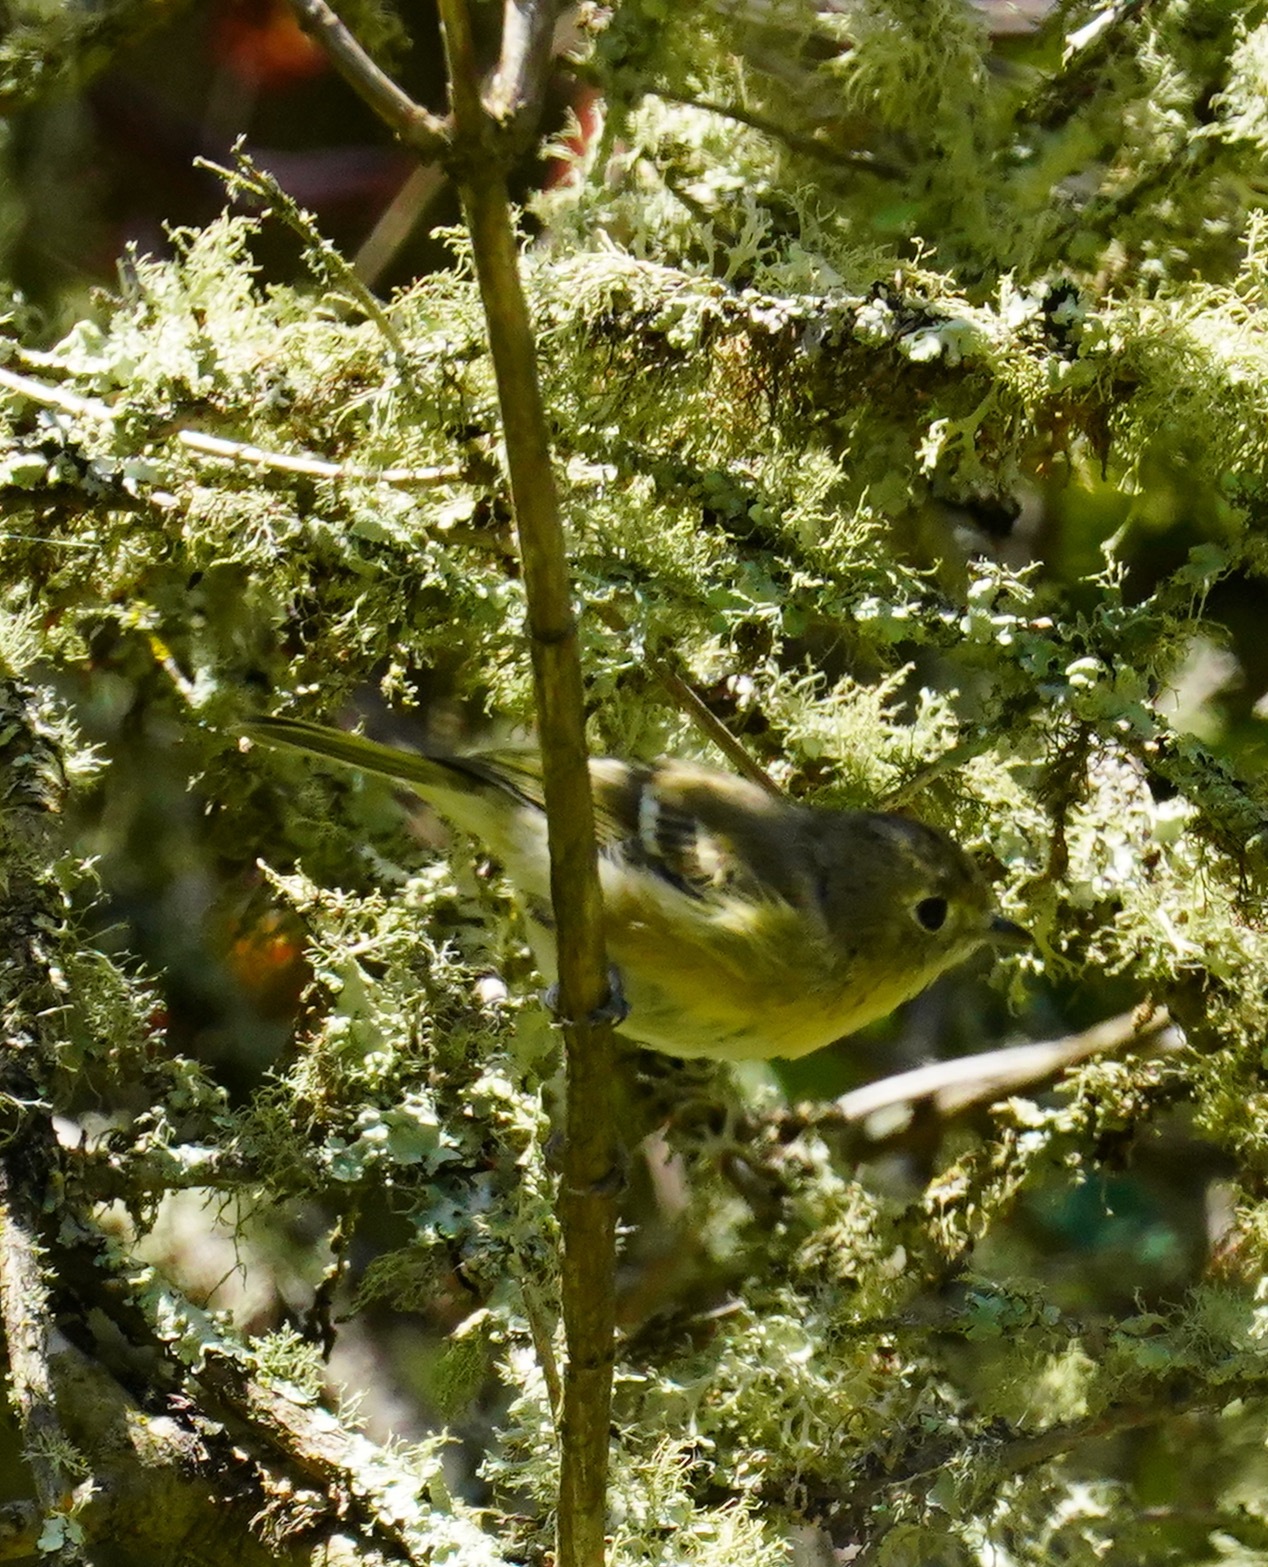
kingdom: Animalia
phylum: Chordata
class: Aves
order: Passeriformes
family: Vireonidae
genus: Vireo
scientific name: Vireo huttoni
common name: Hutton's vireo
